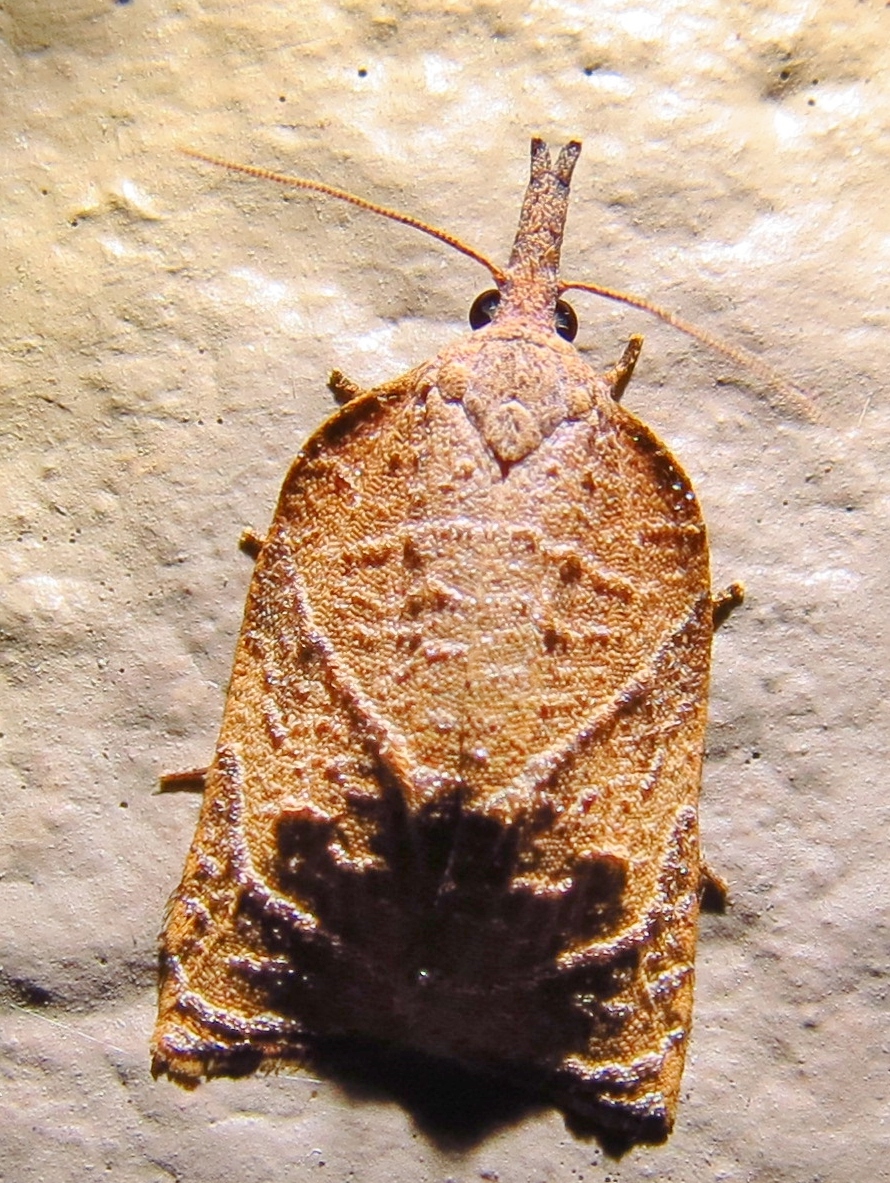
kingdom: Animalia
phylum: Arthropoda
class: Insecta
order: Lepidoptera
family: Tortricidae
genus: Platynota
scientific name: Platynota rostrana
